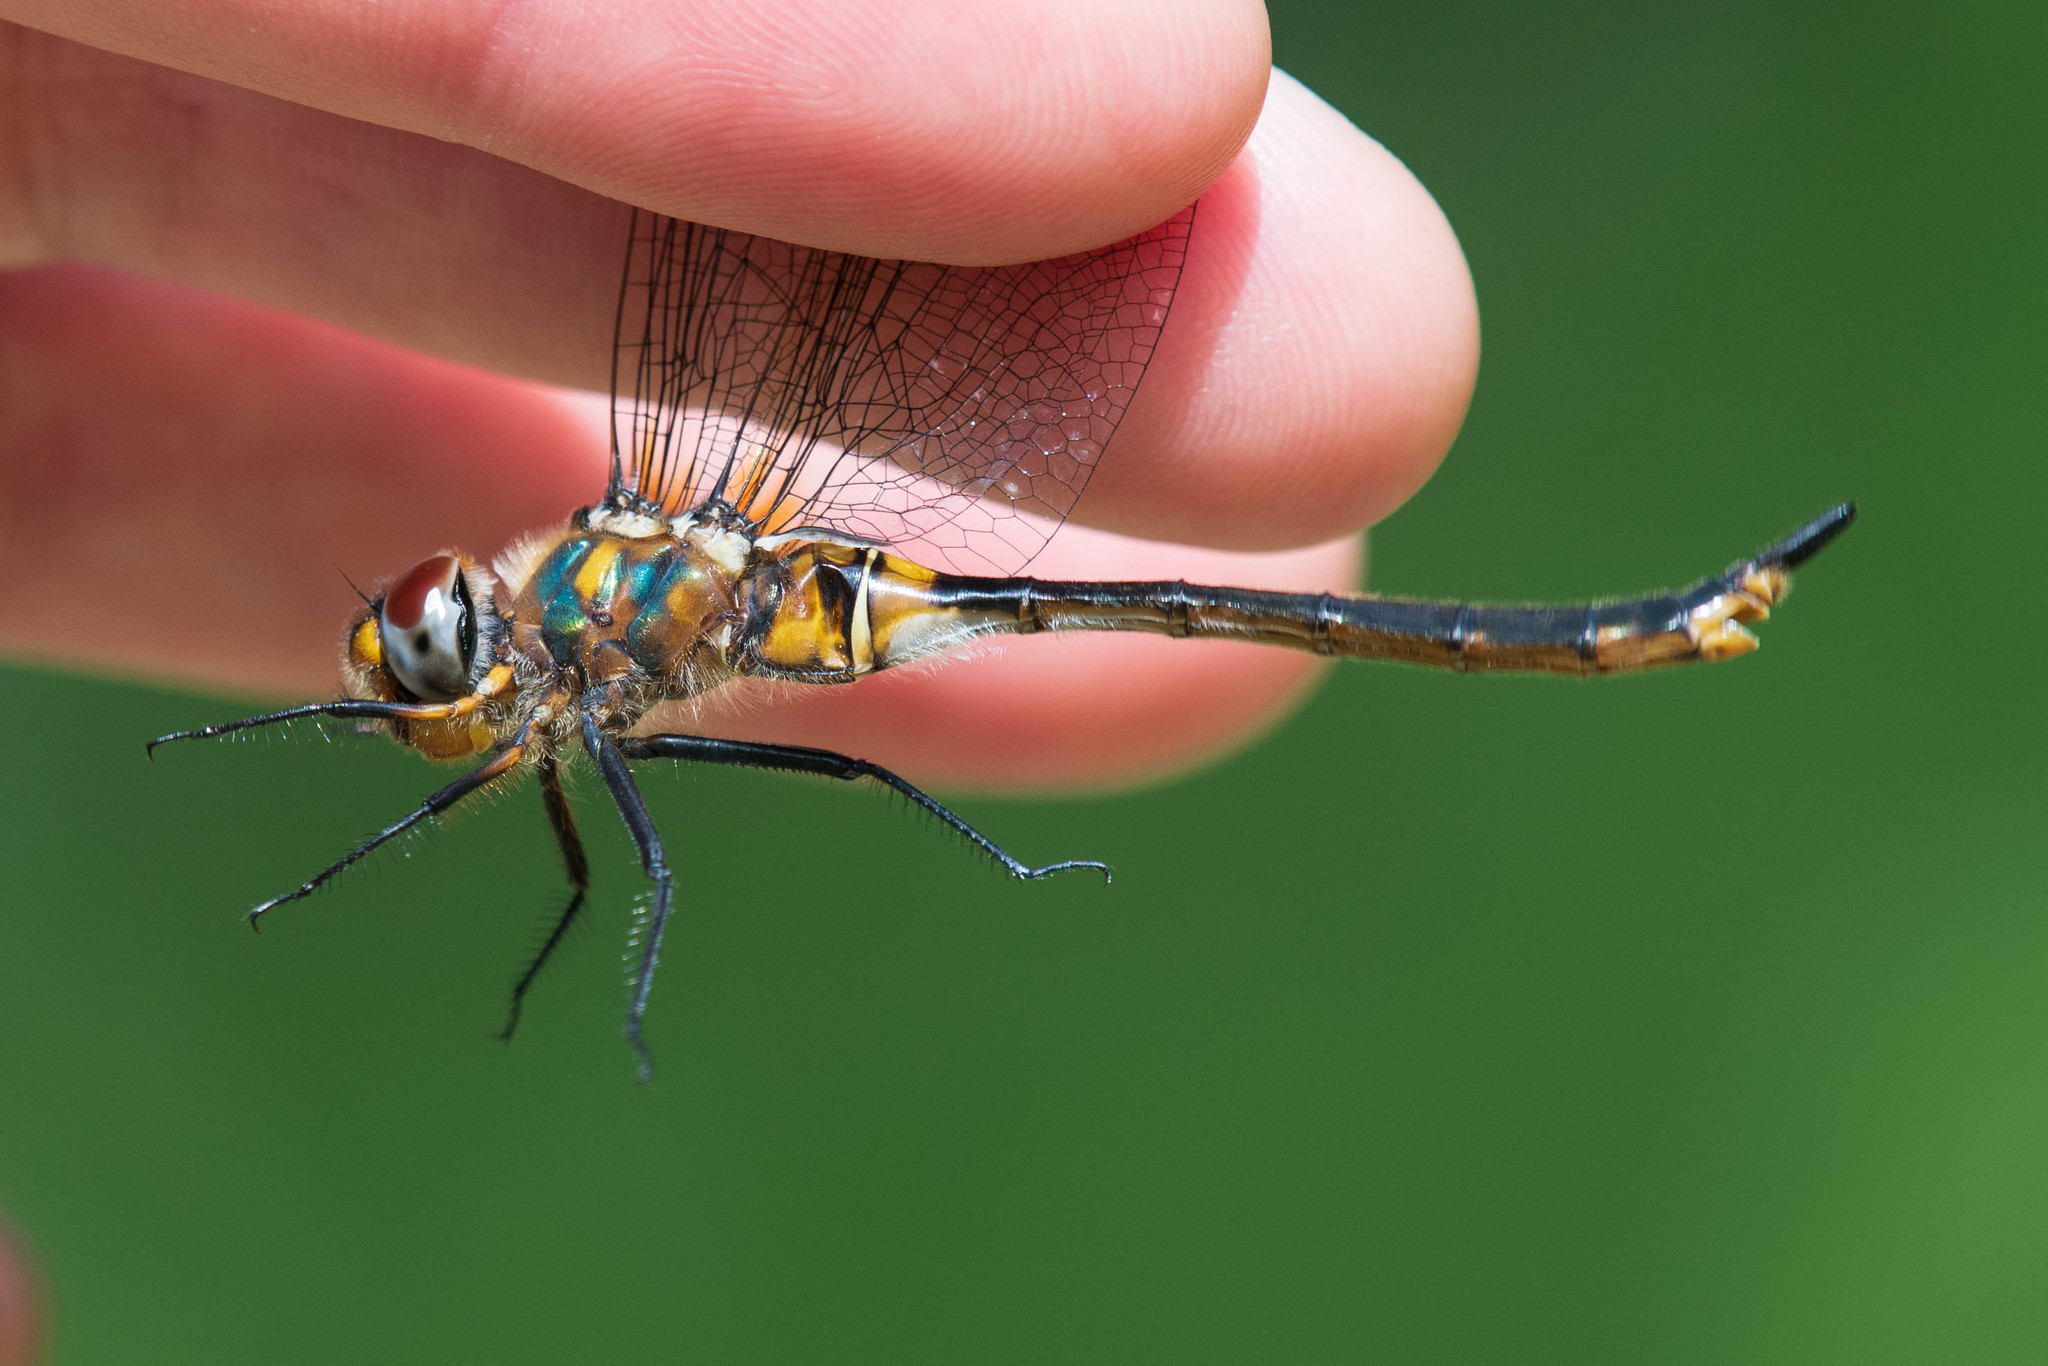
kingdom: Animalia
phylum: Arthropoda
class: Insecta
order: Odonata
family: Corduliidae
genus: Somatochlora
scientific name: Somatochlora kennedyi
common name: Kennedy's emerald
